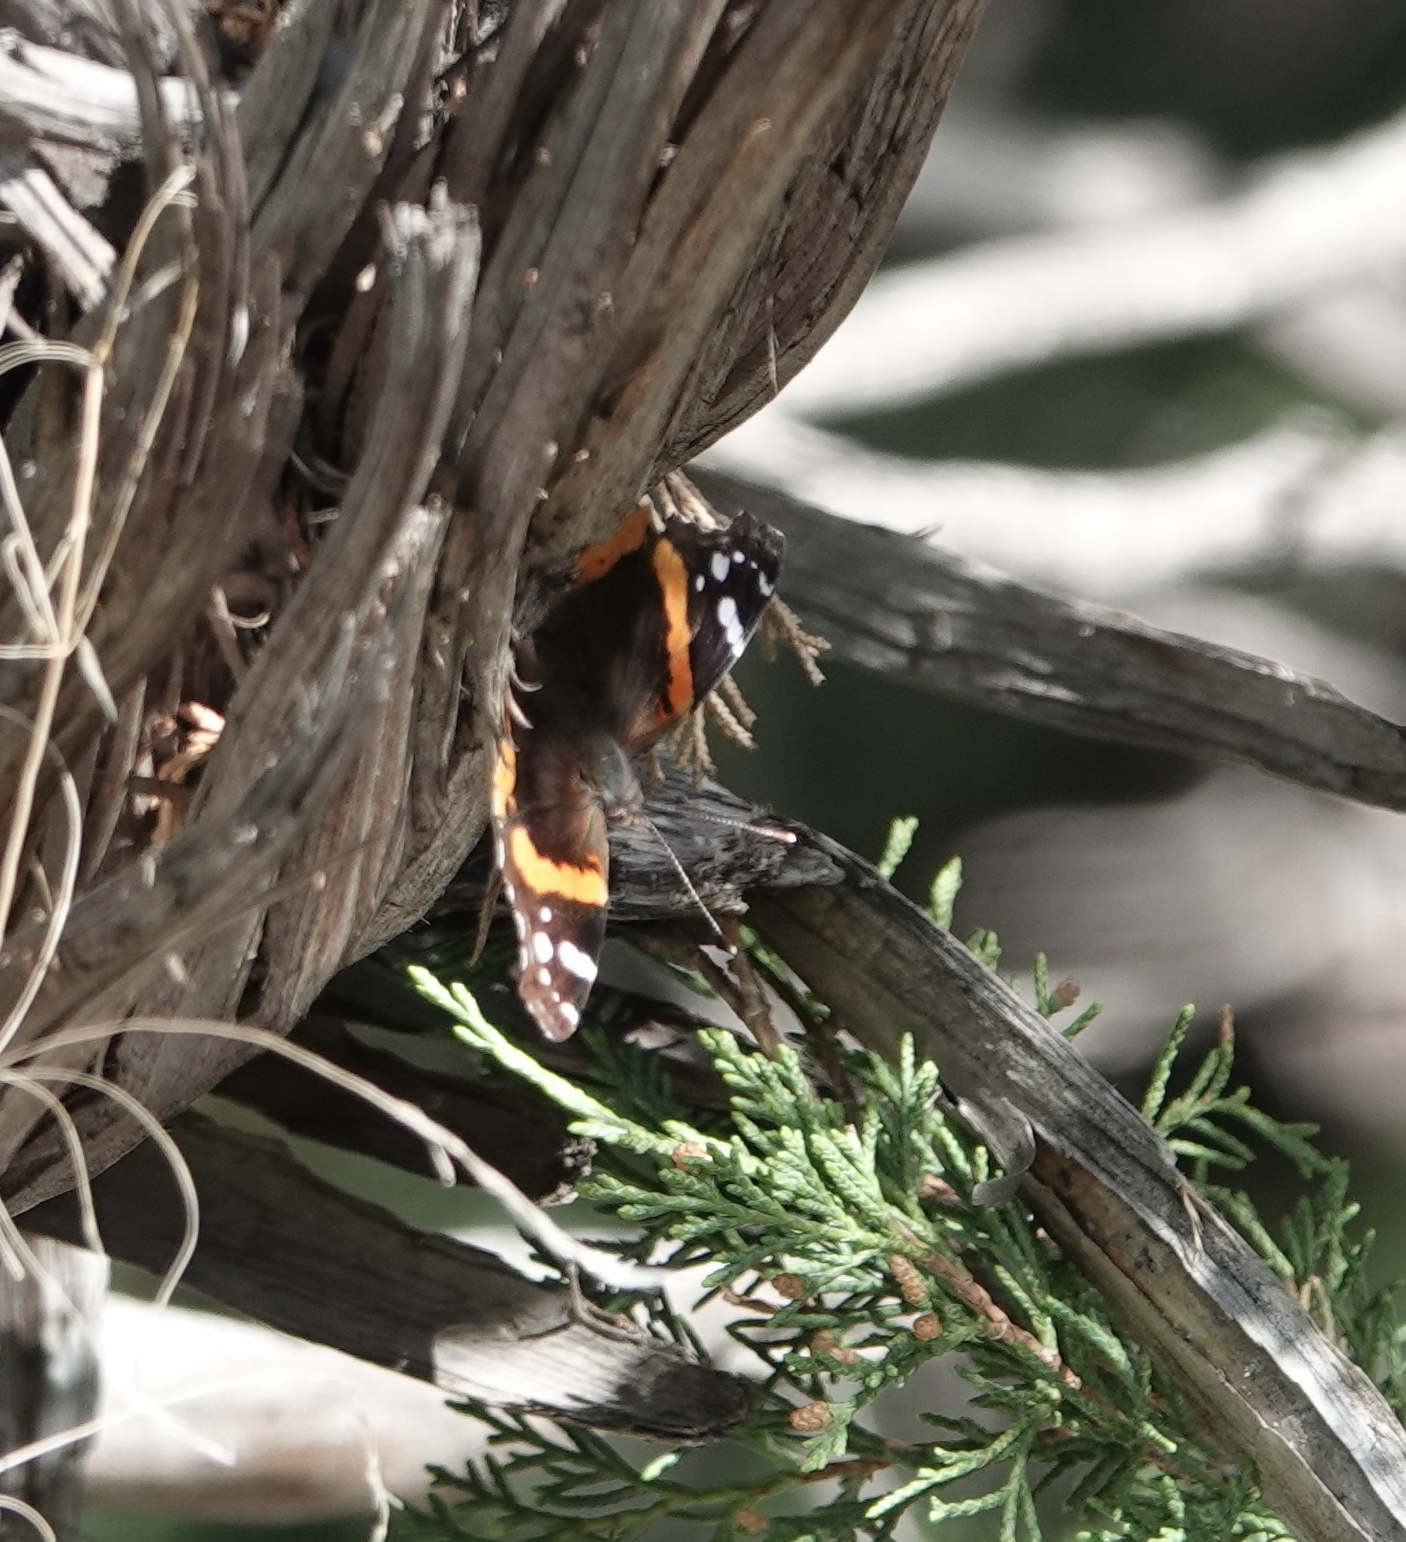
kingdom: Animalia
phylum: Arthropoda
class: Insecta
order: Lepidoptera
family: Nymphalidae
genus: Vanessa
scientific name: Vanessa atalanta
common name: Red admiral
